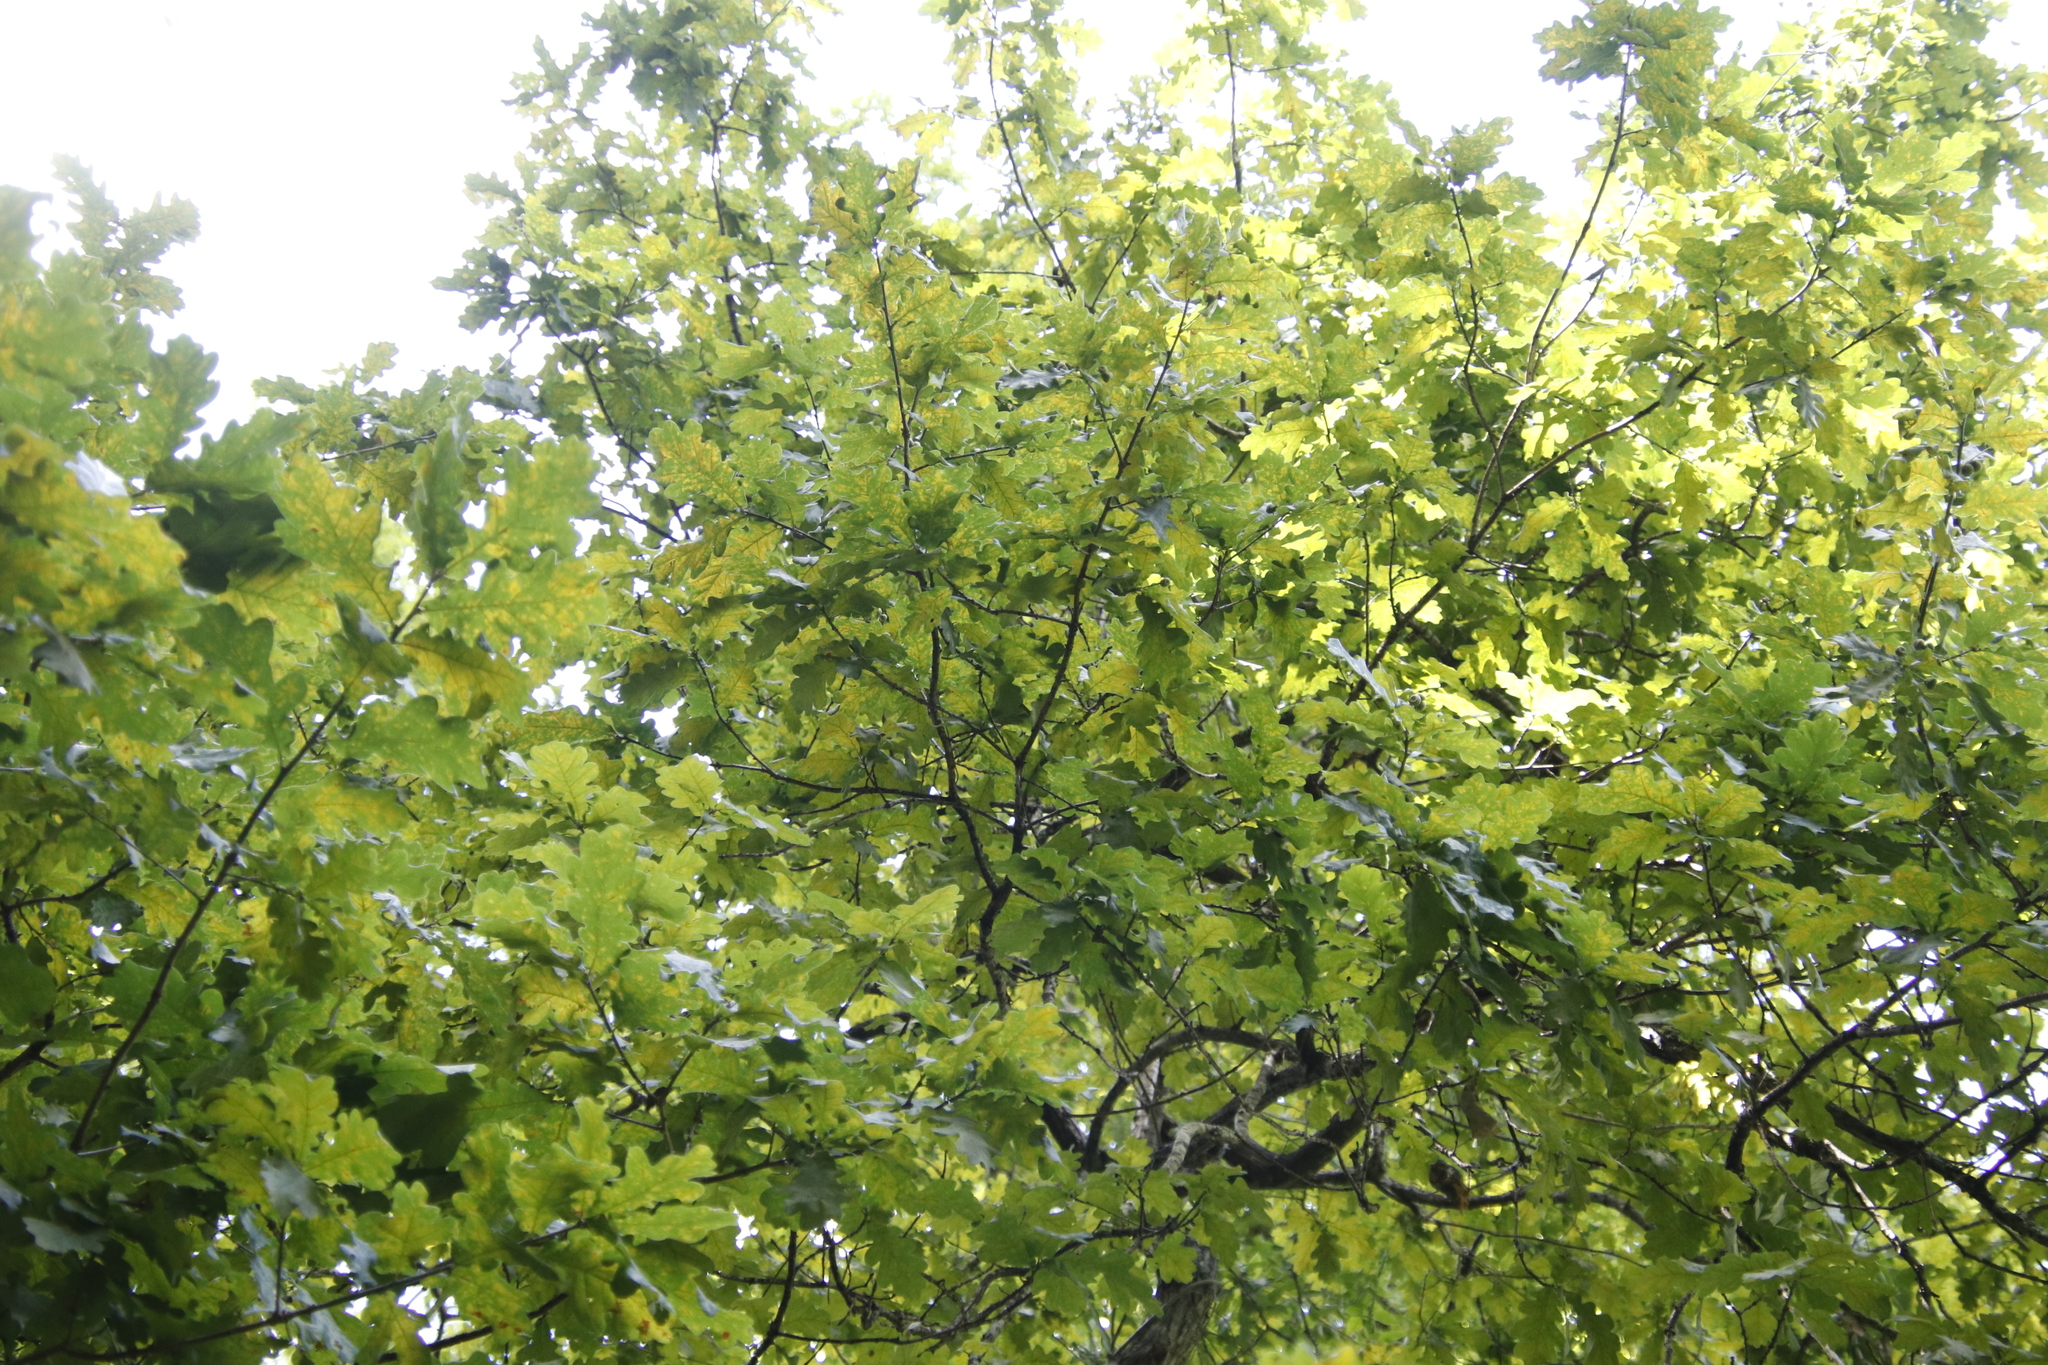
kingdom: Plantae
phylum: Tracheophyta
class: Magnoliopsida
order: Fagales
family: Fagaceae
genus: Quercus
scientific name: Quercus robur
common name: Pedunculate oak
